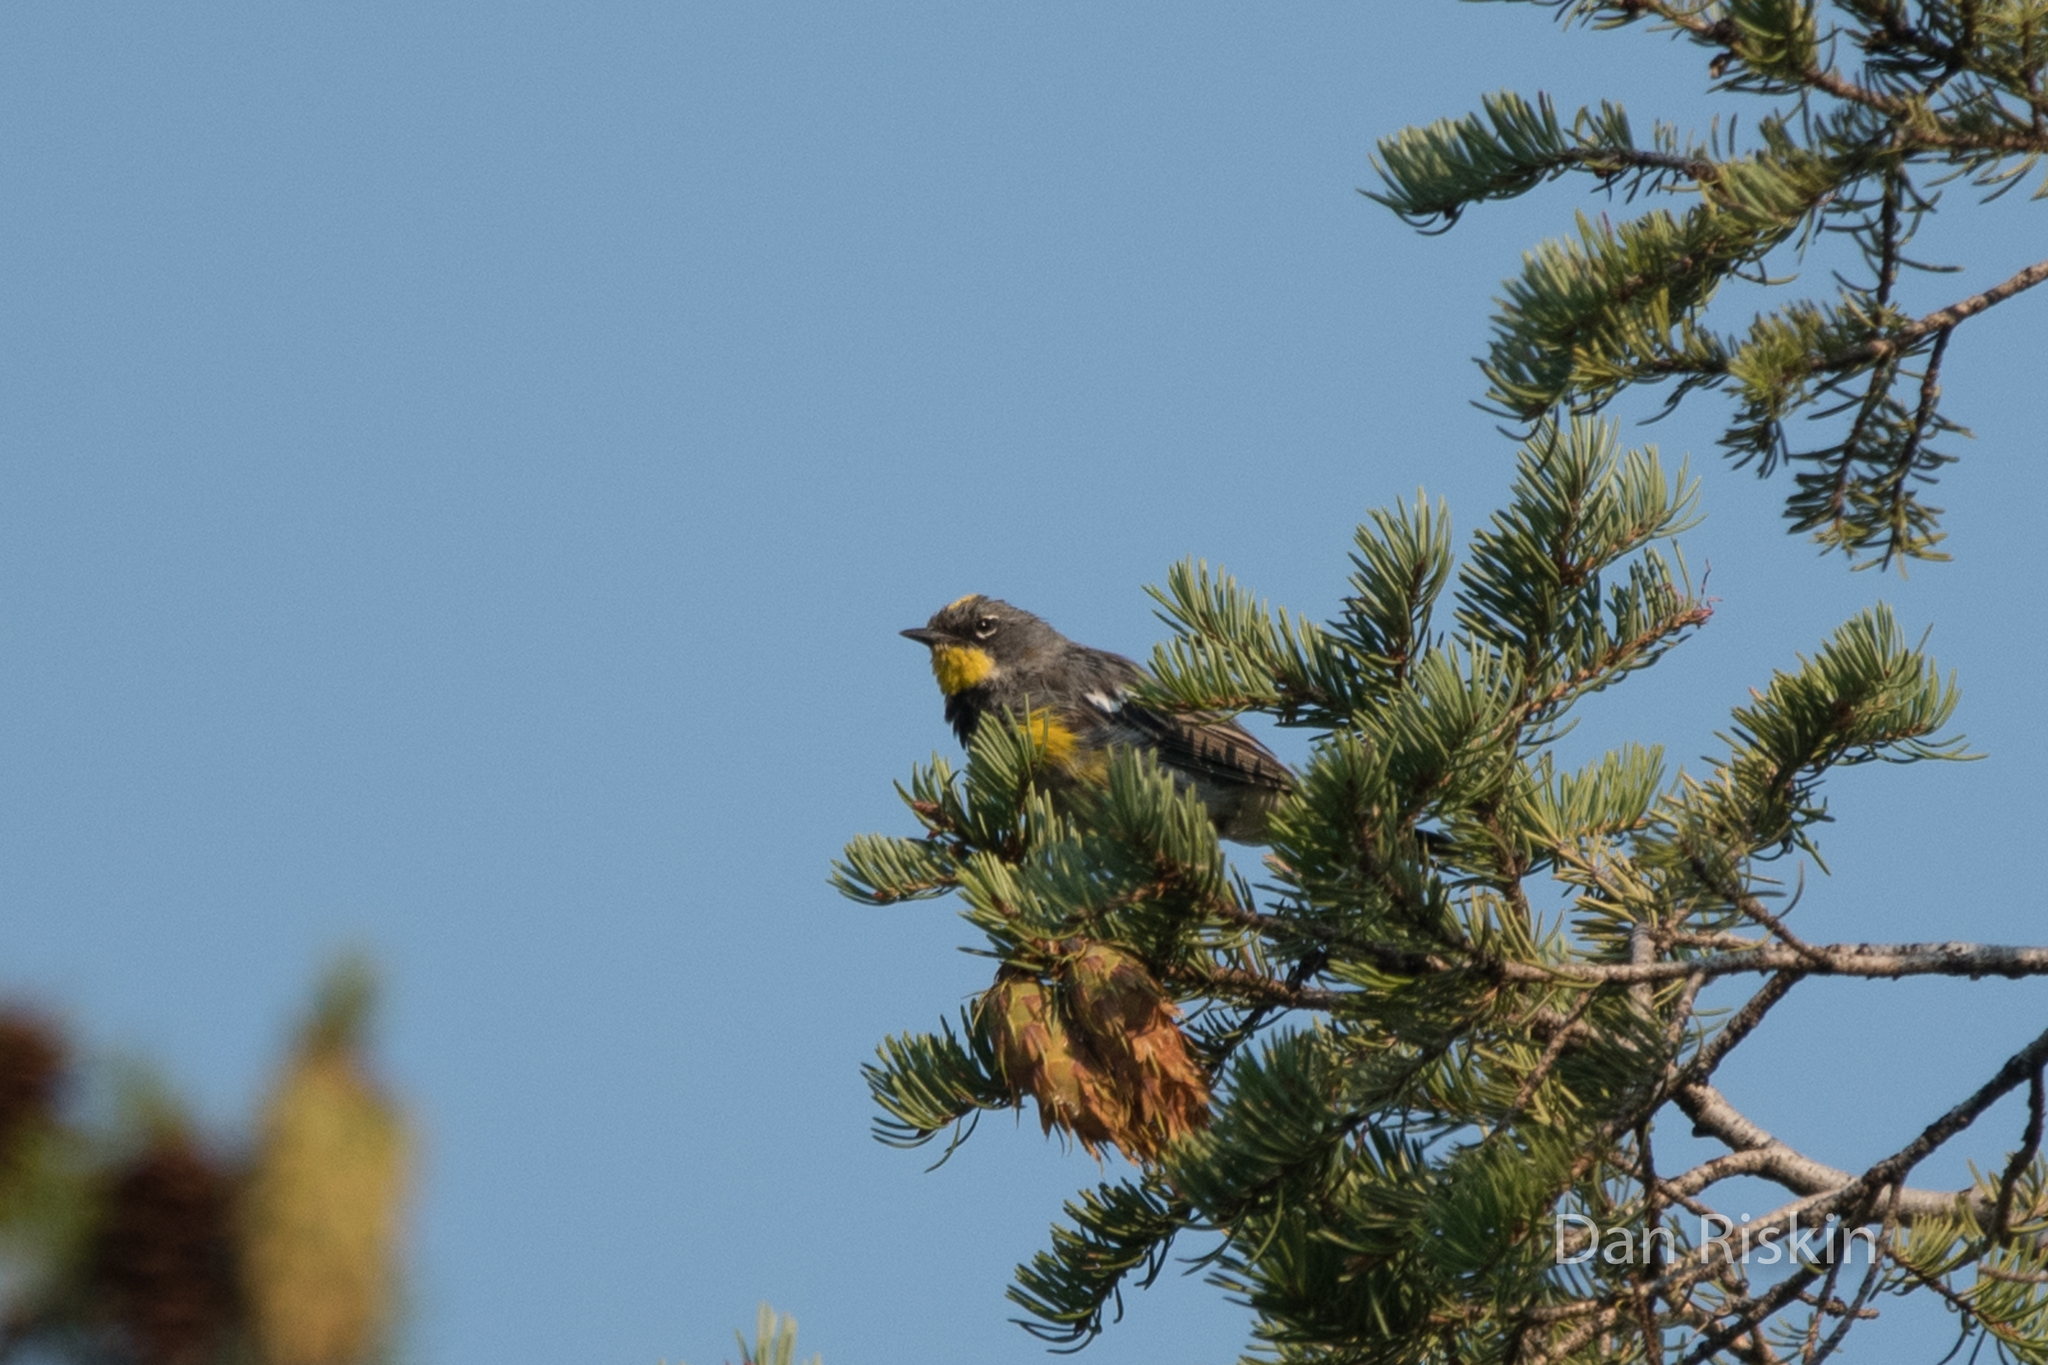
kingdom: Animalia
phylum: Chordata
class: Aves
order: Passeriformes
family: Parulidae
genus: Setophaga
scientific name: Setophaga auduboni
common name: Audubon's warbler
